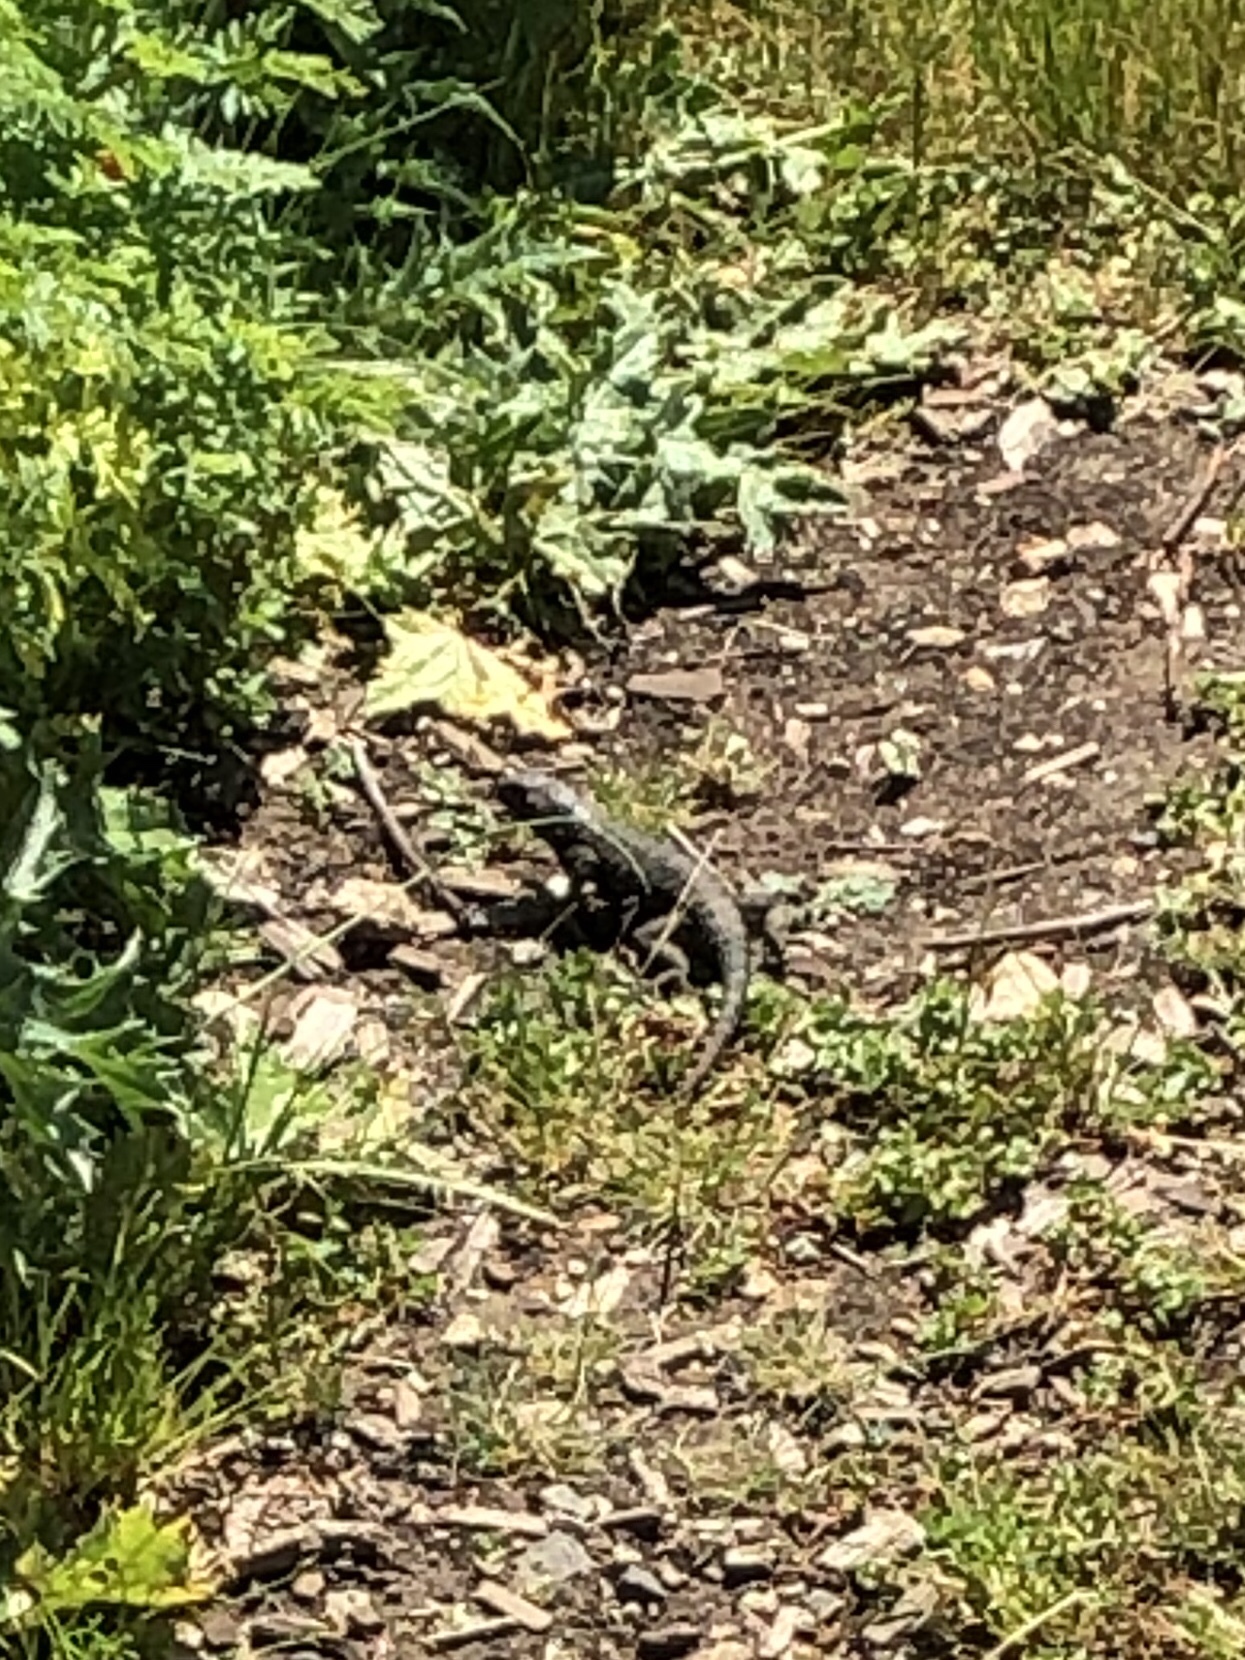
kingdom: Animalia
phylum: Chordata
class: Squamata
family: Phrynosomatidae
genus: Sceloporus
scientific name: Sceloporus occidentalis
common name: Western fence lizard
